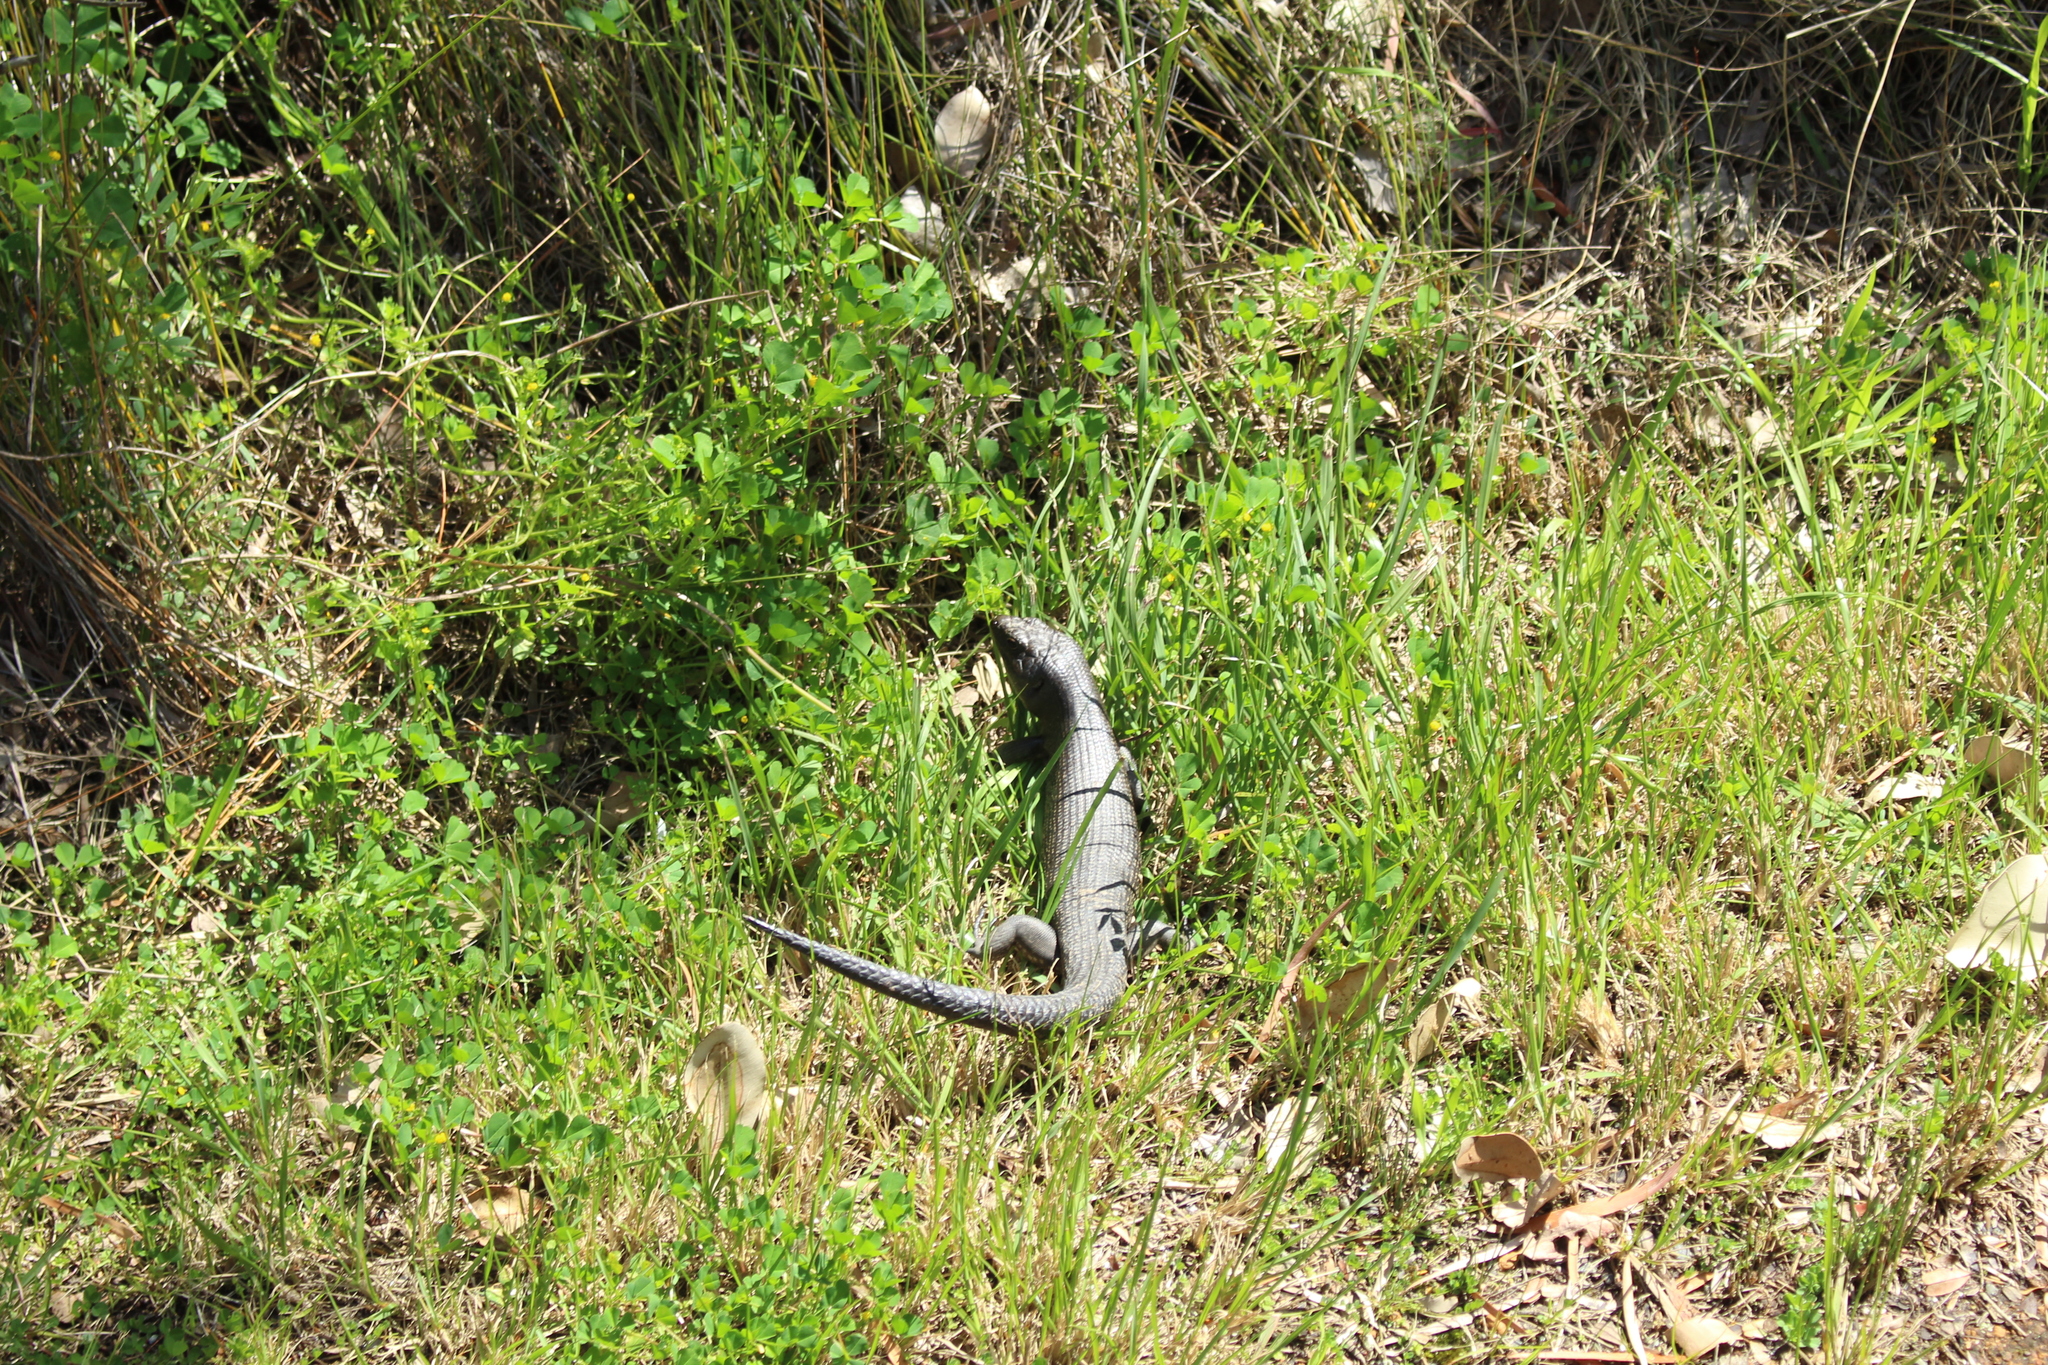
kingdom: Animalia
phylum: Chordata
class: Squamata
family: Scincidae
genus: Egernia
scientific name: Egernia kingii
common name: King's skink
